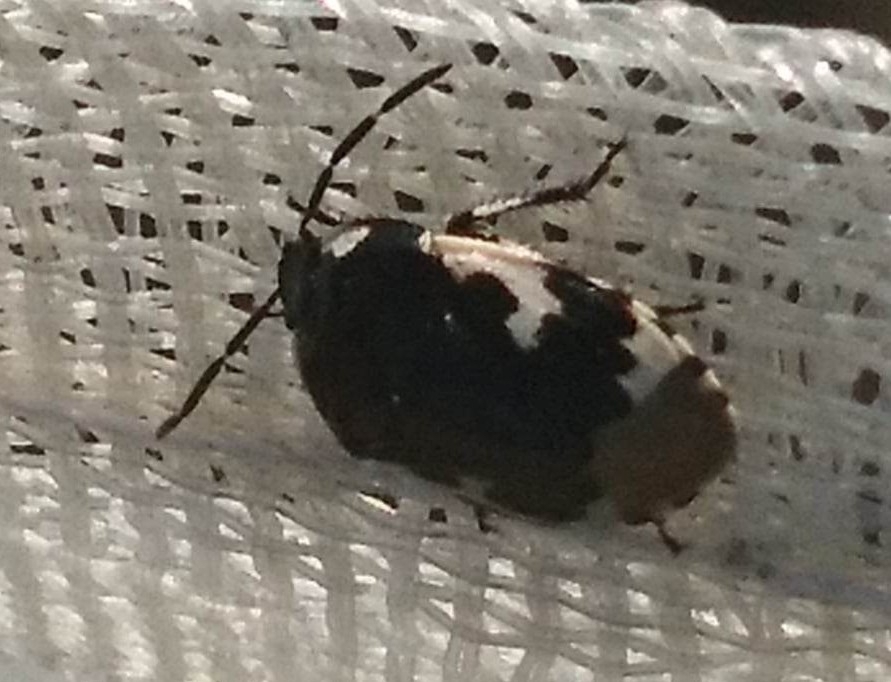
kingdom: Animalia
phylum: Arthropoda
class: Insecta
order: Hemiptera
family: Cydnidae
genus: Tritomegas
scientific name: Tritomegas bicolor
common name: Pied shieldbug
